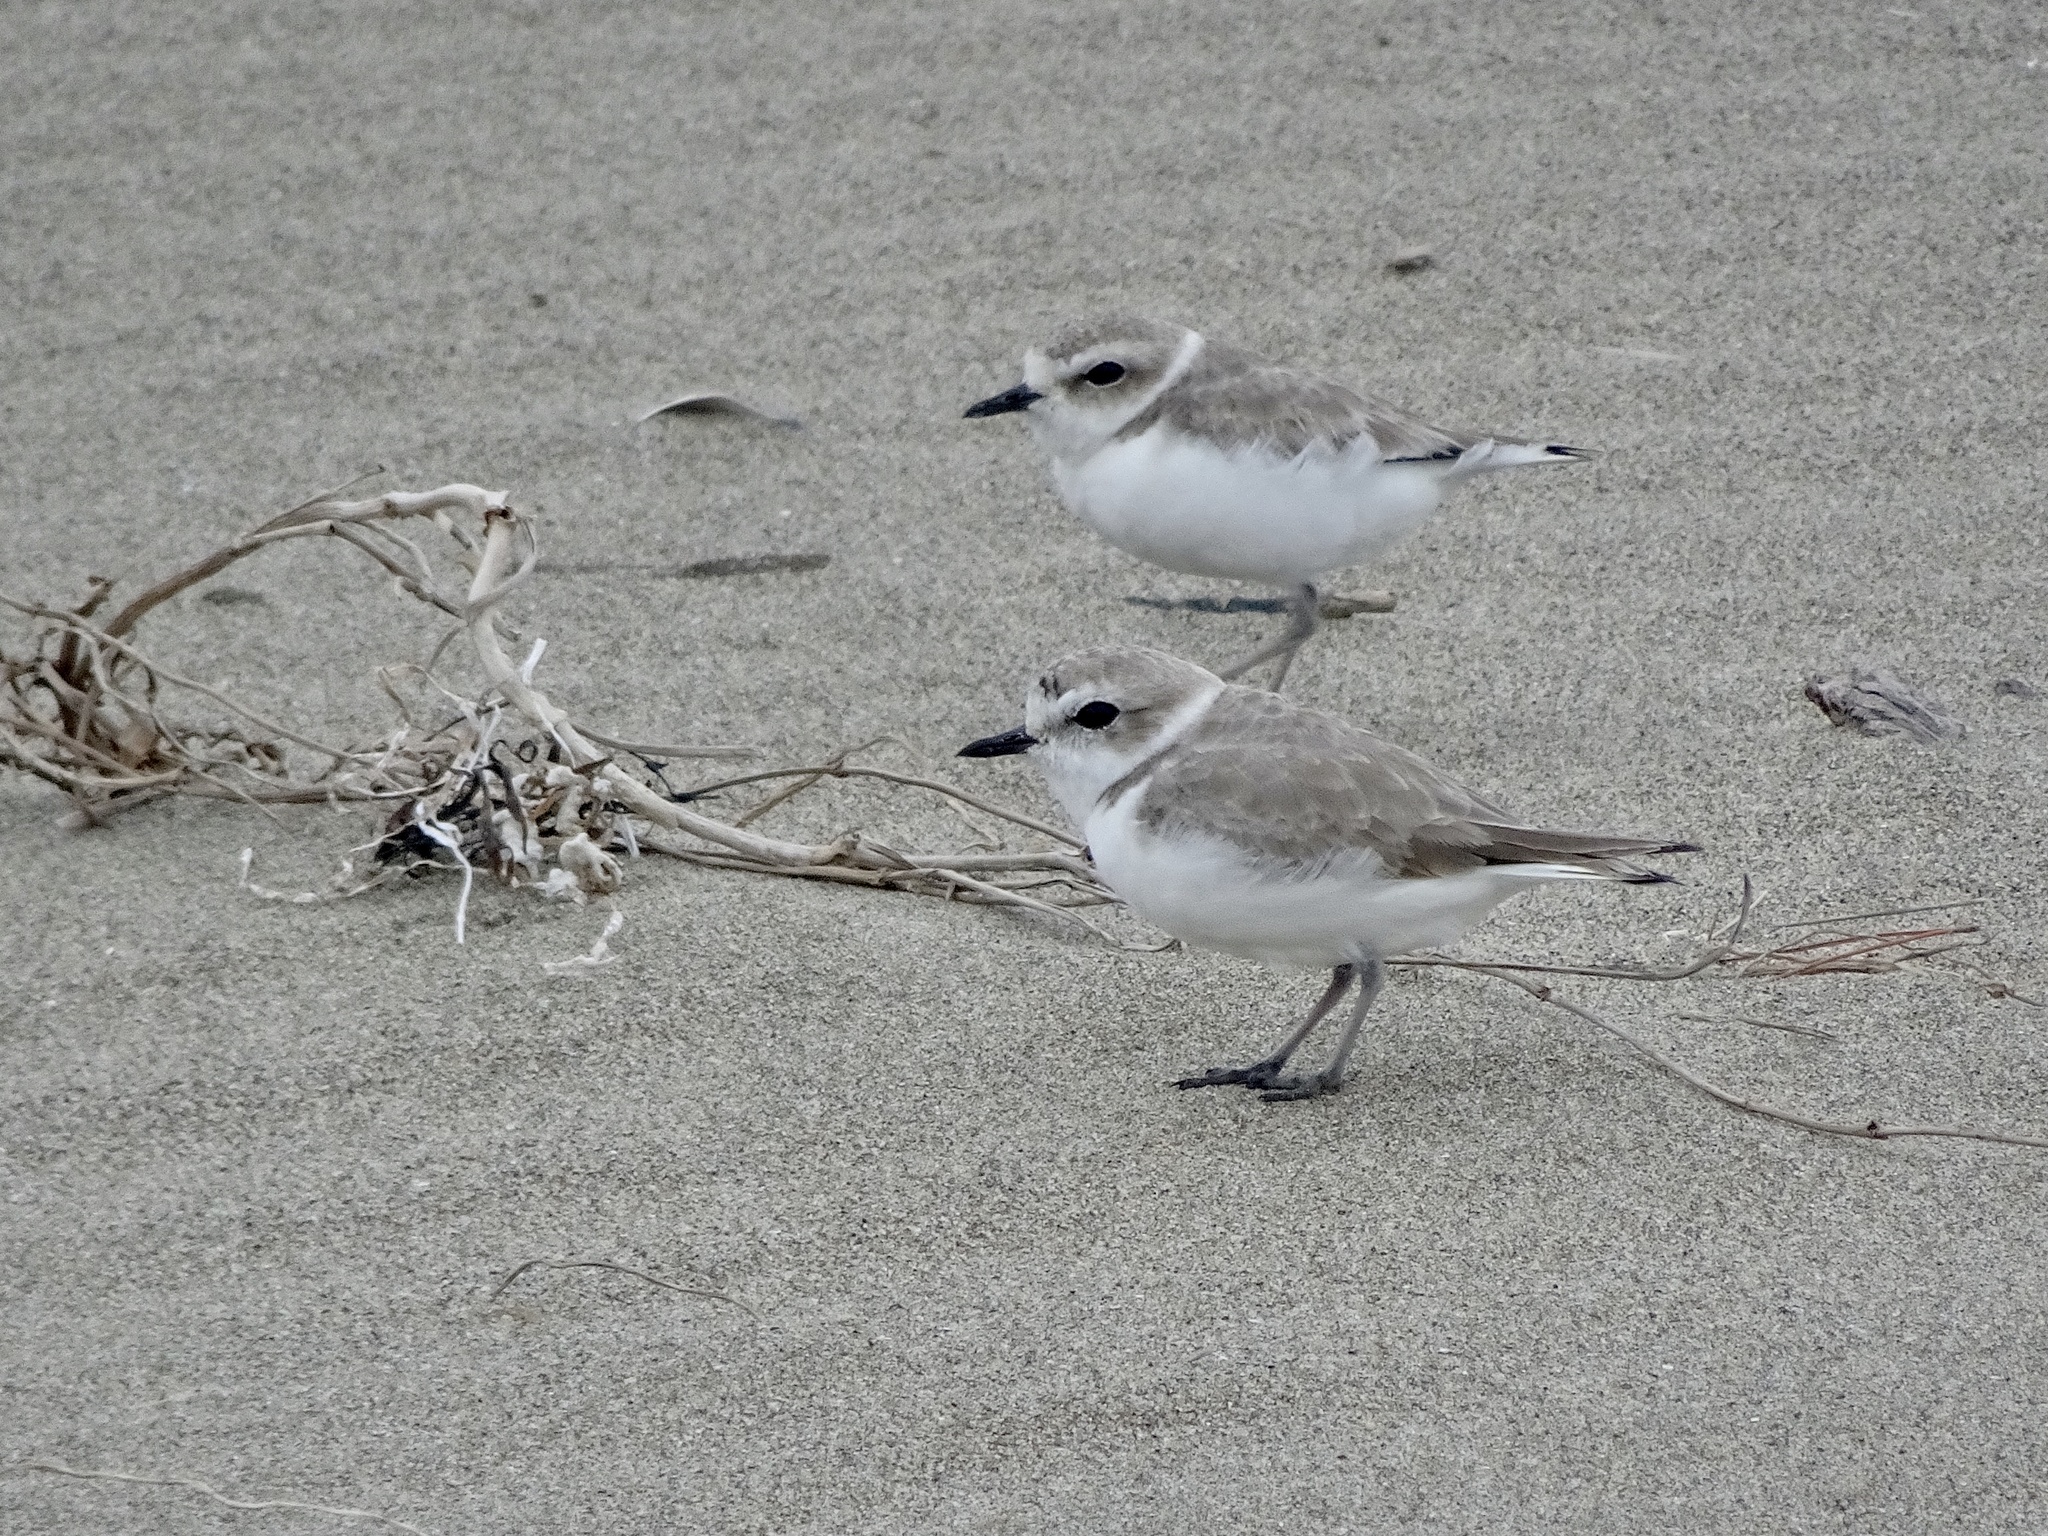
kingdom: Animalia
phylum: Chordata
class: Aves
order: Charadriiformes
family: Charadriidae
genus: Anarhynchus
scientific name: Anarhynchus
